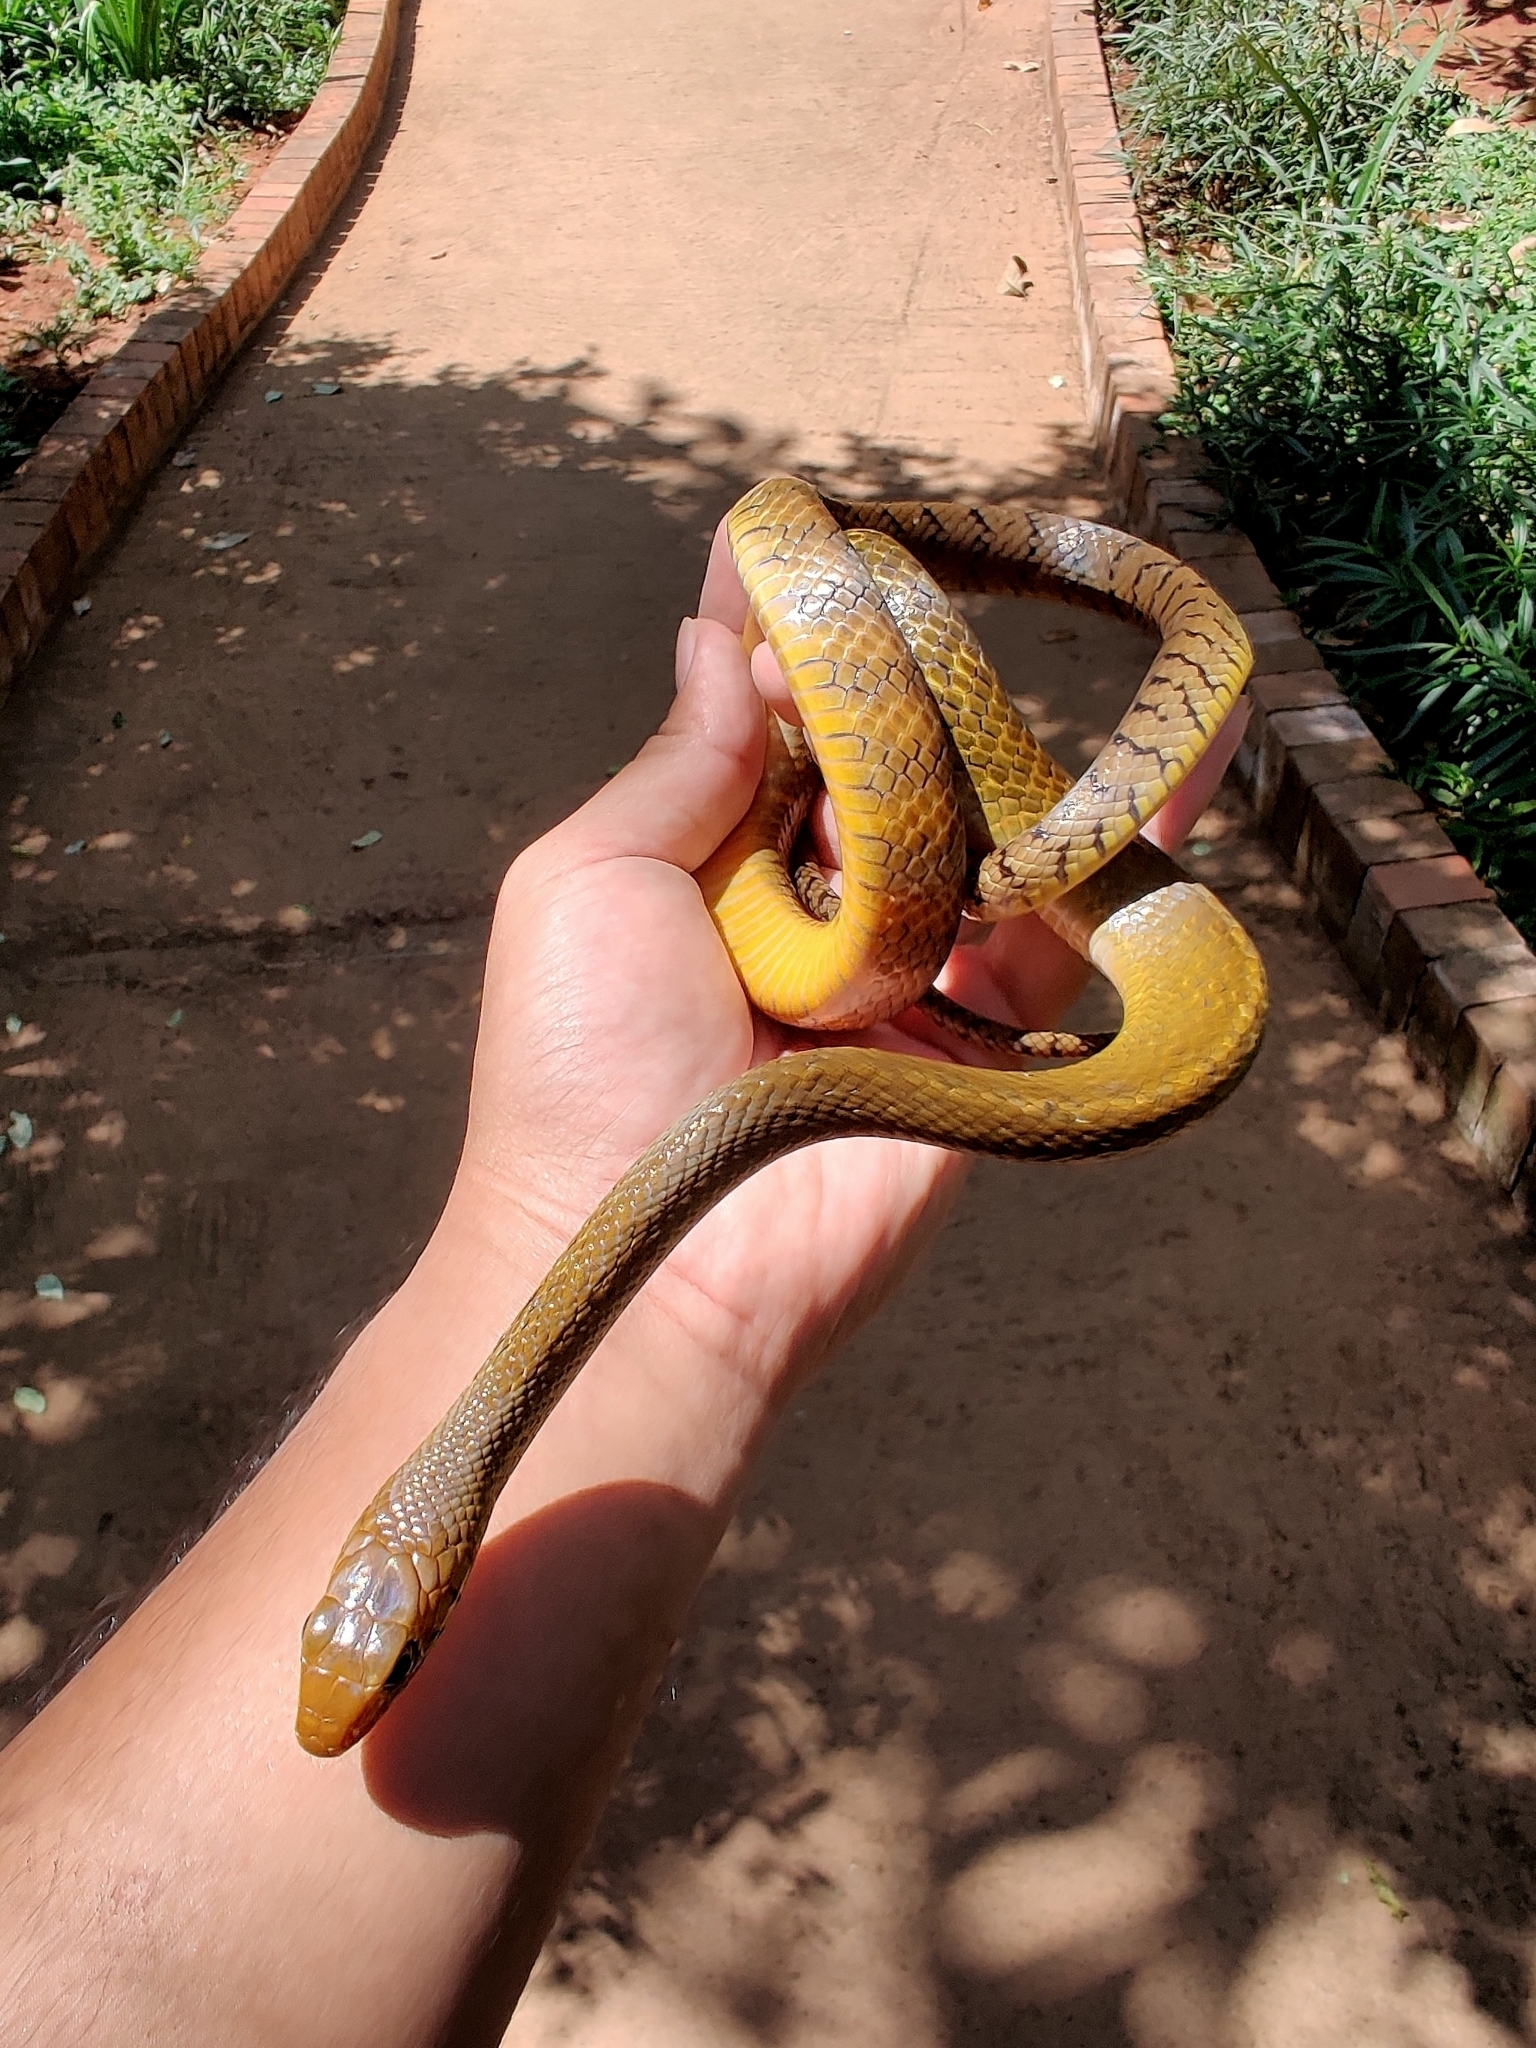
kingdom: Animalia
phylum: Chordata
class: Squamata
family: Colubridae
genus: Ptyas
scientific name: Ptyas mucosa
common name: Oriental ratsnake
